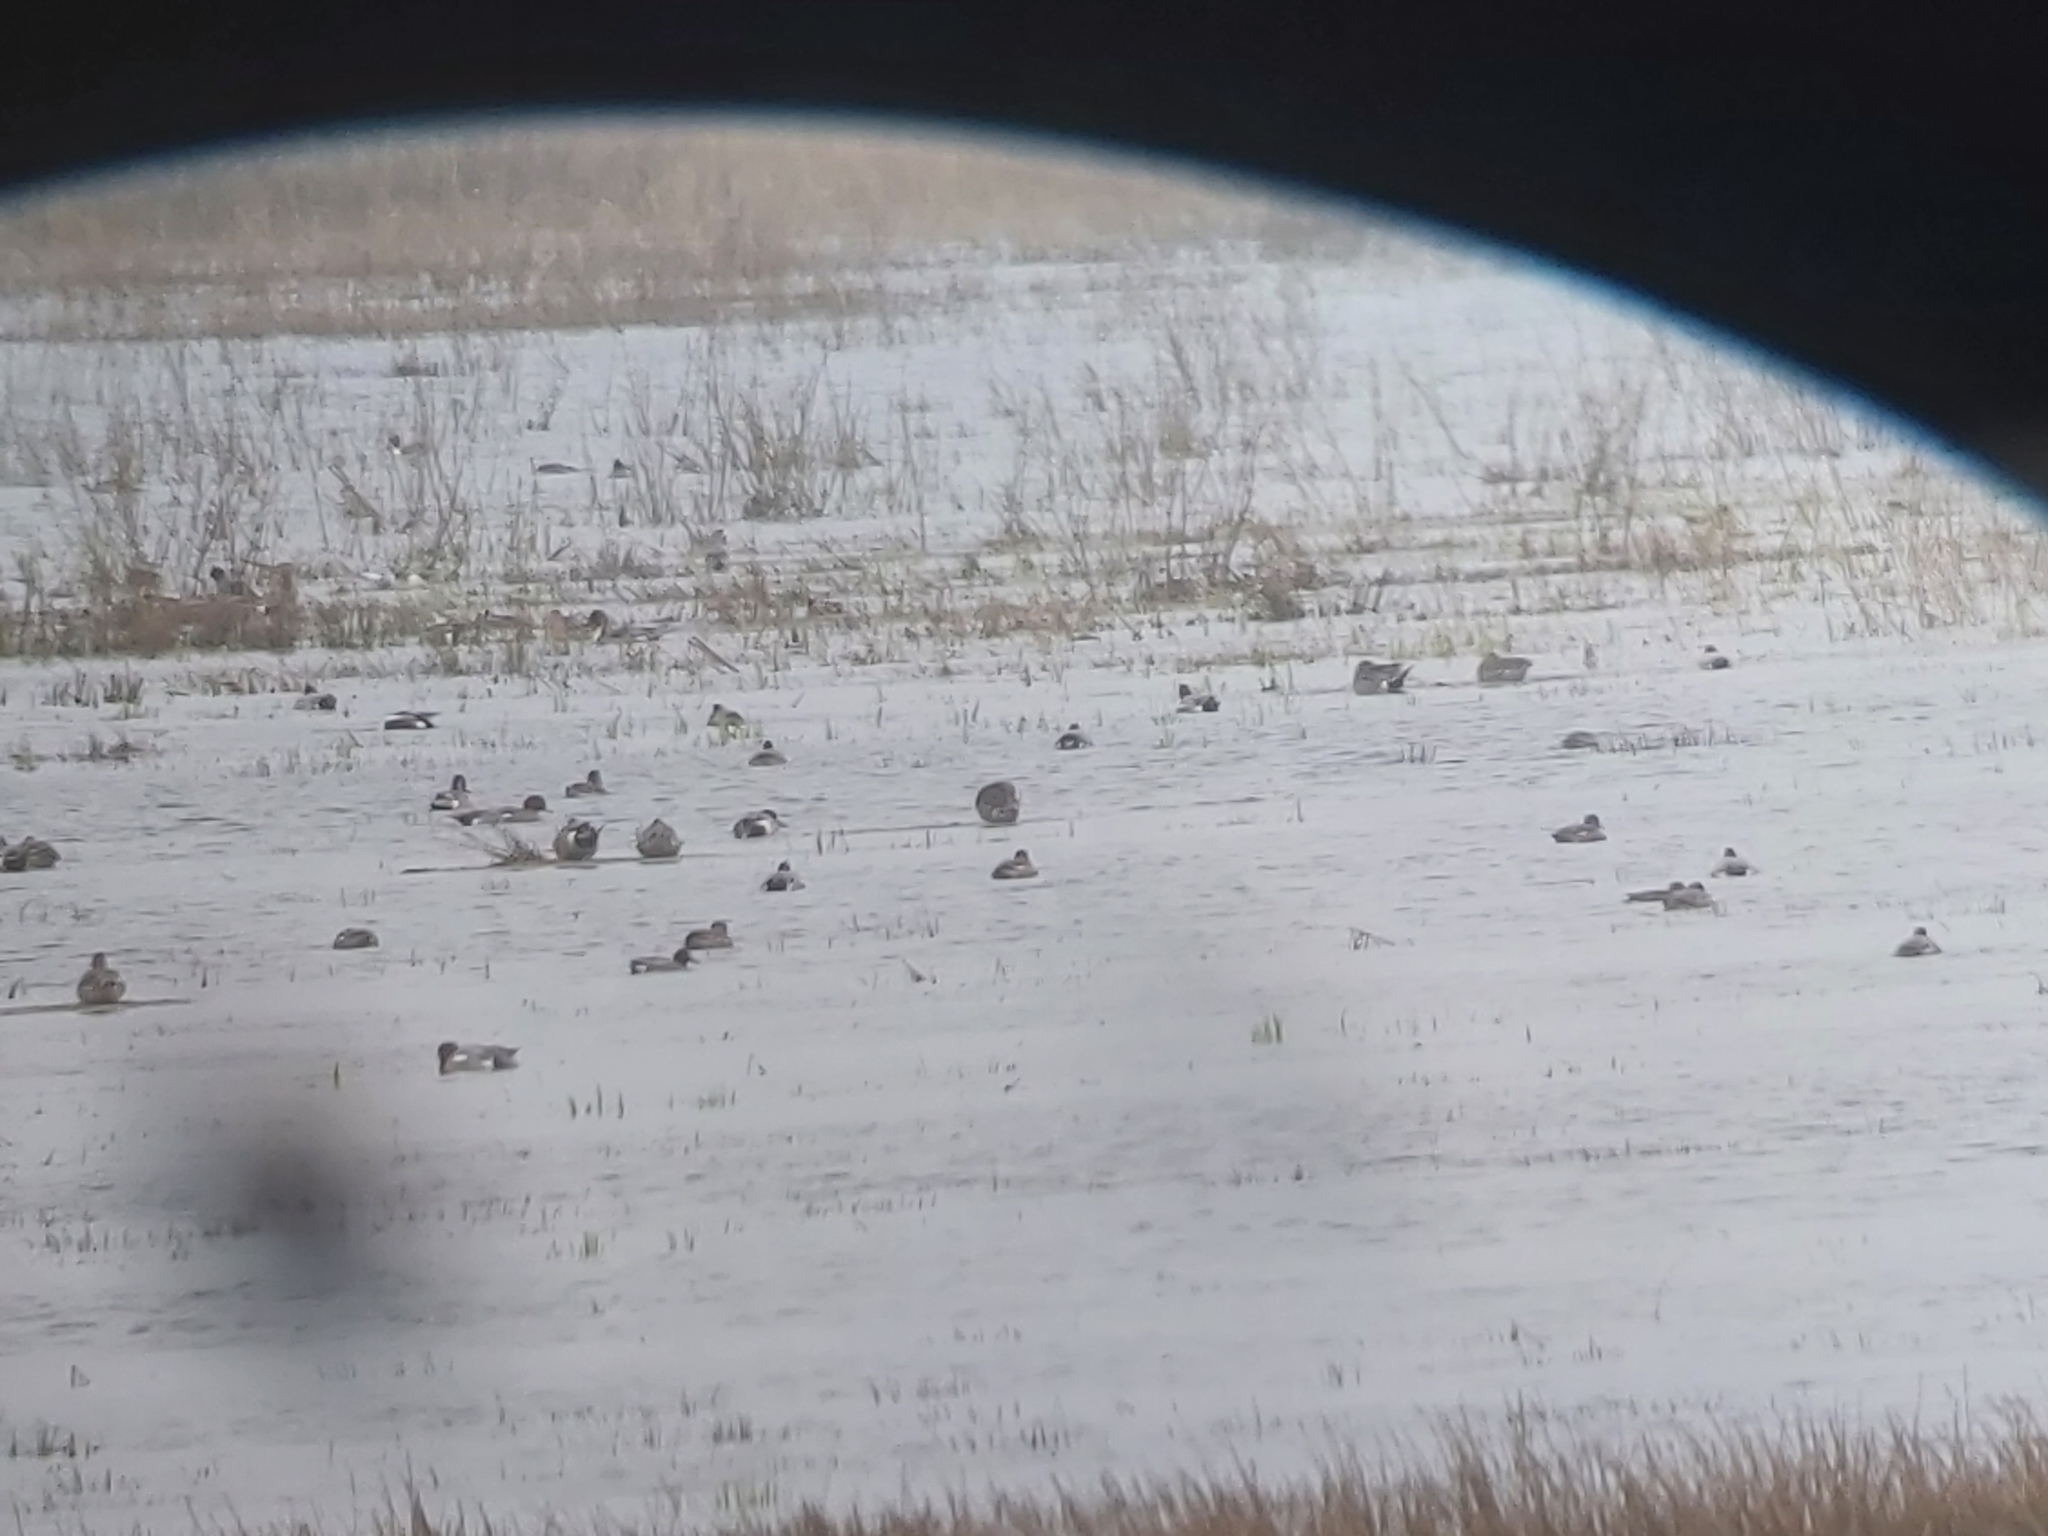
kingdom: Animalia
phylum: Chordata
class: Aves
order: Anseriformes
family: Anatidae
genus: Mareca
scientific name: Mareca penelope
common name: Eurasian wigeon
